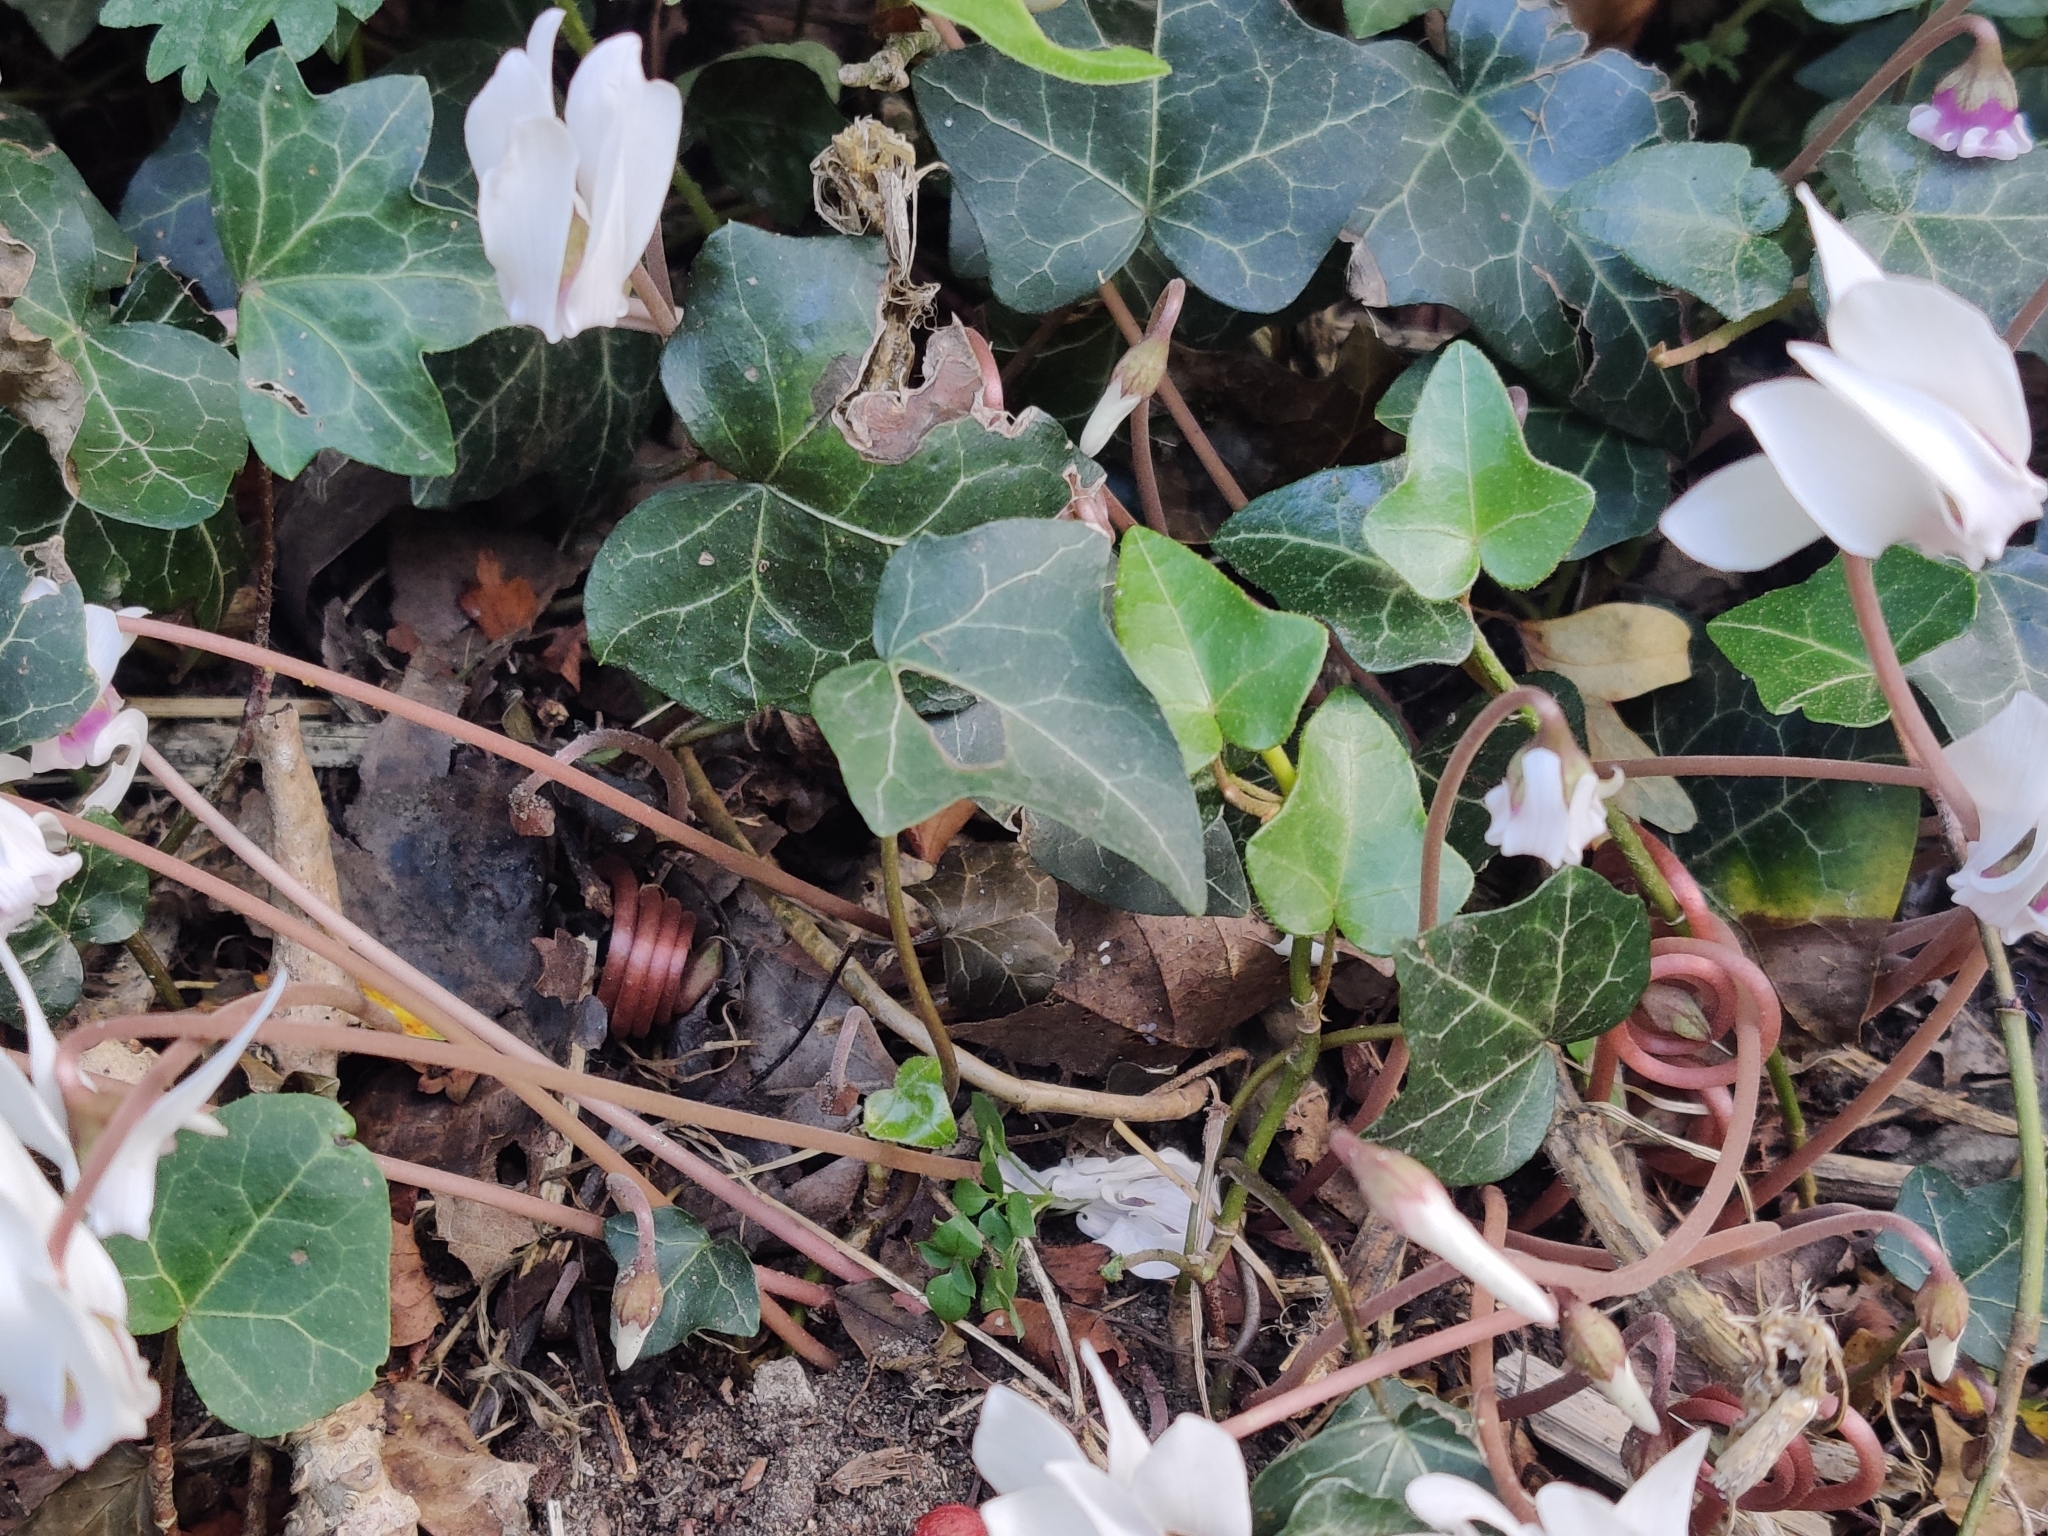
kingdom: Plantae
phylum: Tracheophyta
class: Magnoliopsida
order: Ericales
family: Primulaceae
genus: Cyclamen
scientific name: Cyclamen hederifolium
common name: Sowbread
